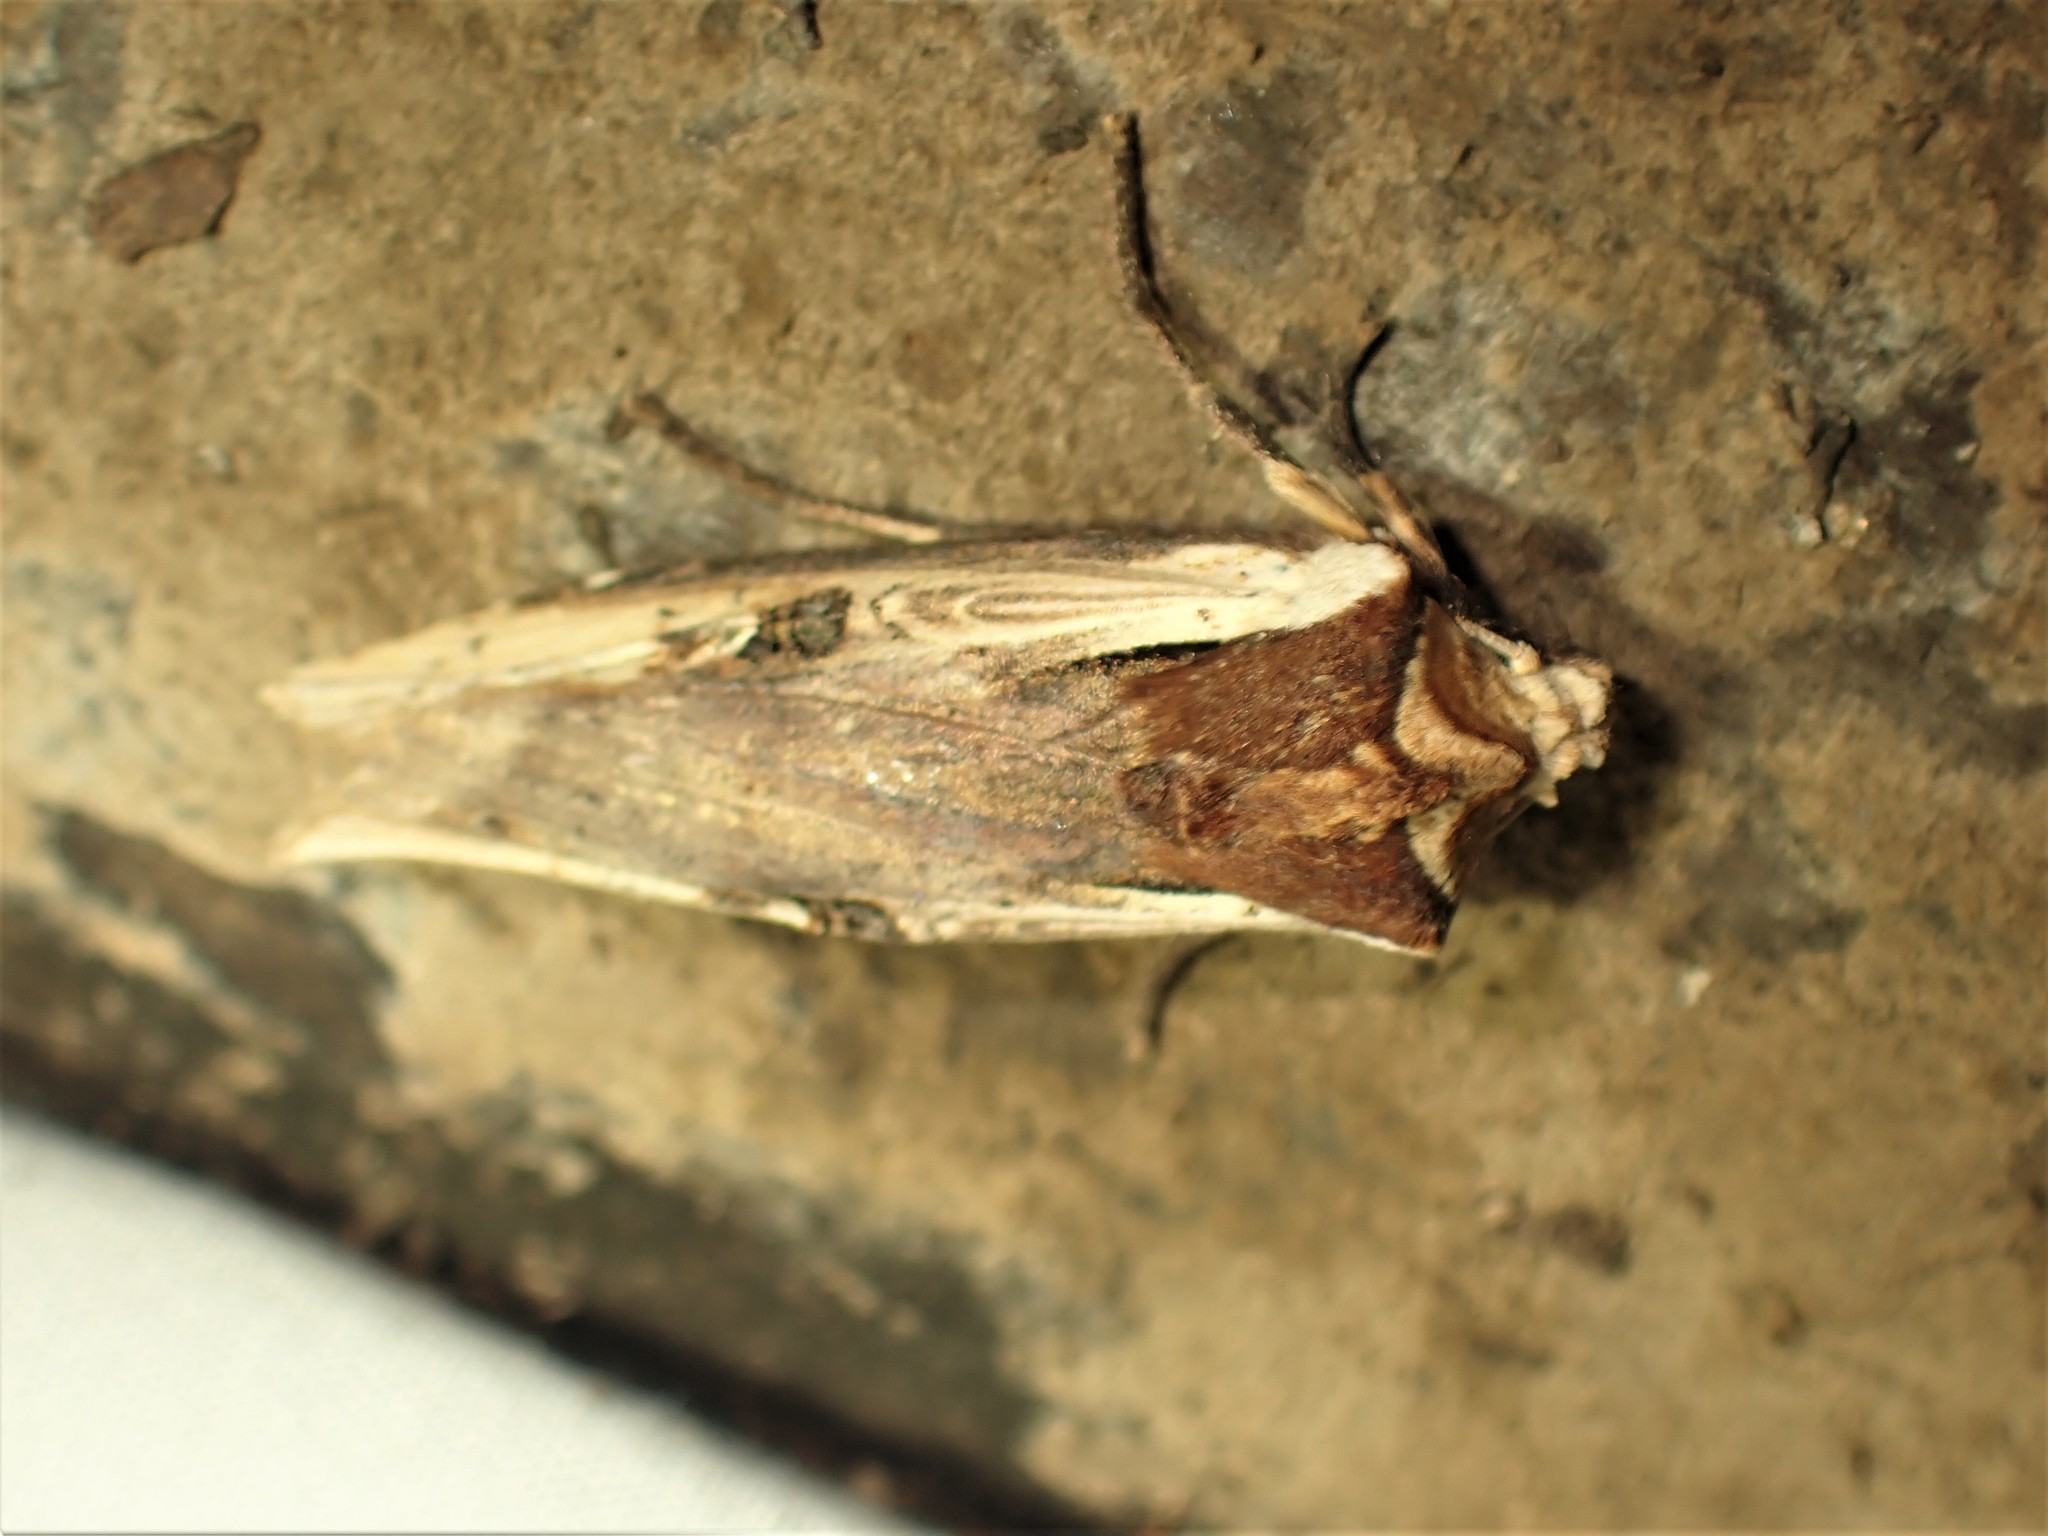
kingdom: Animalia
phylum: Arthropoda
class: Insecta
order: Lepidoptera
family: Noctuidae
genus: Xylena
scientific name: Xylena curvimacula
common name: Dot-and-dash swordgrass moth
